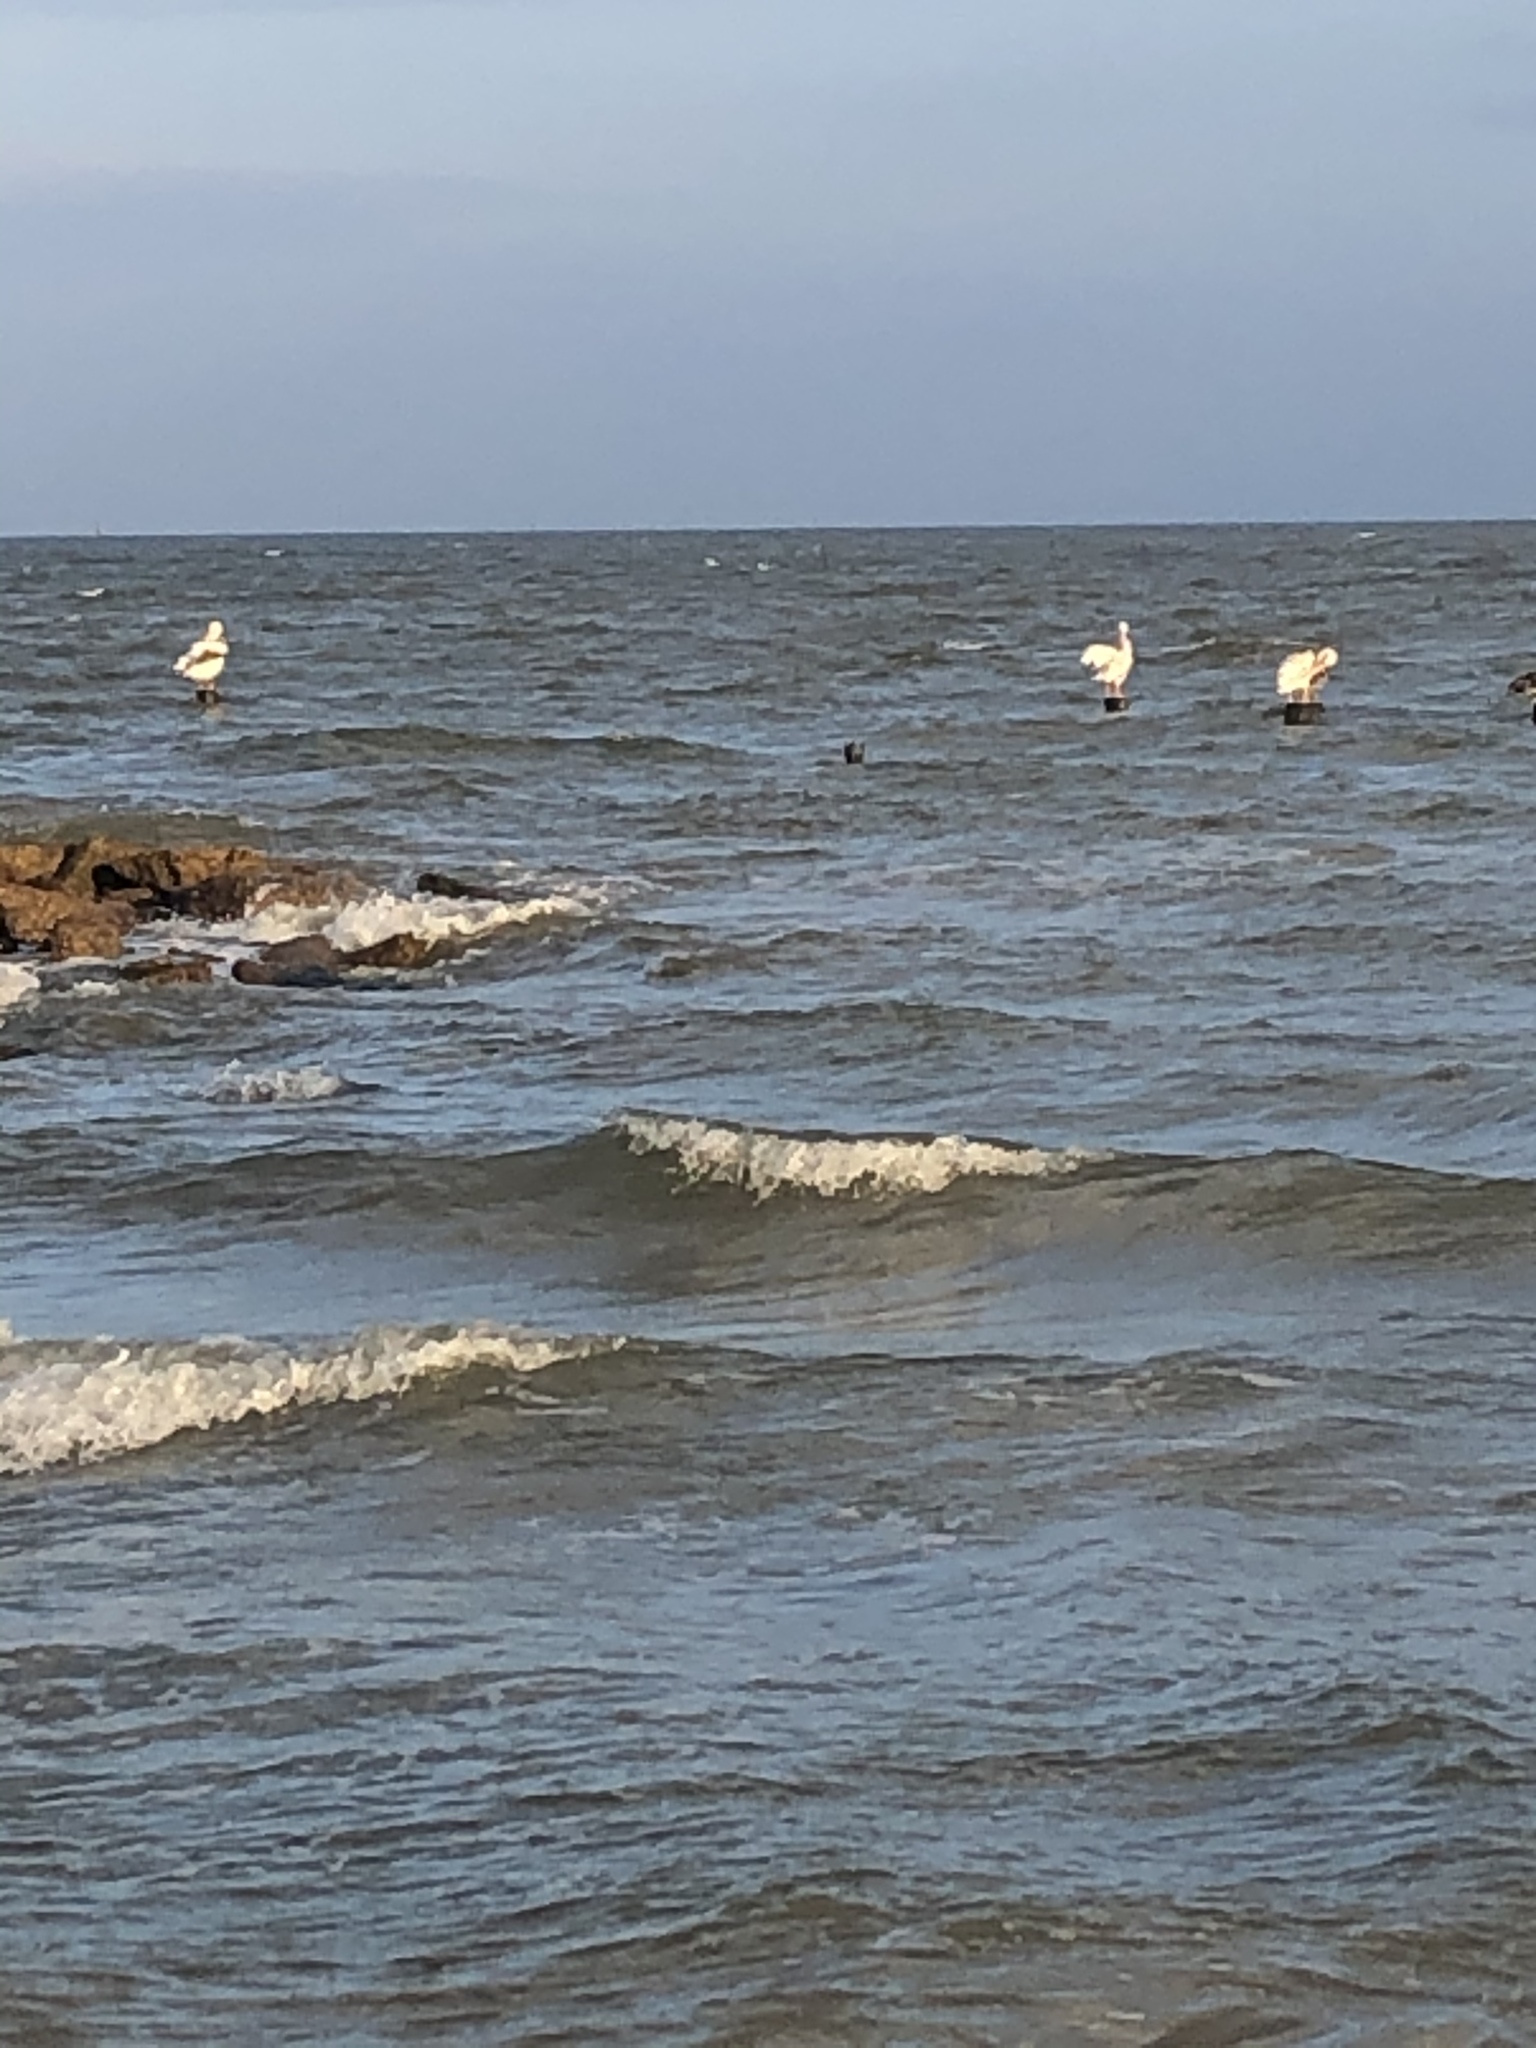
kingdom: Animalia
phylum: Chordata
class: Aves
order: Pelecaniformes
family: Pelecanidae
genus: Pelecanus
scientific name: Pelecanus erythrorhynchos
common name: American white pelican
